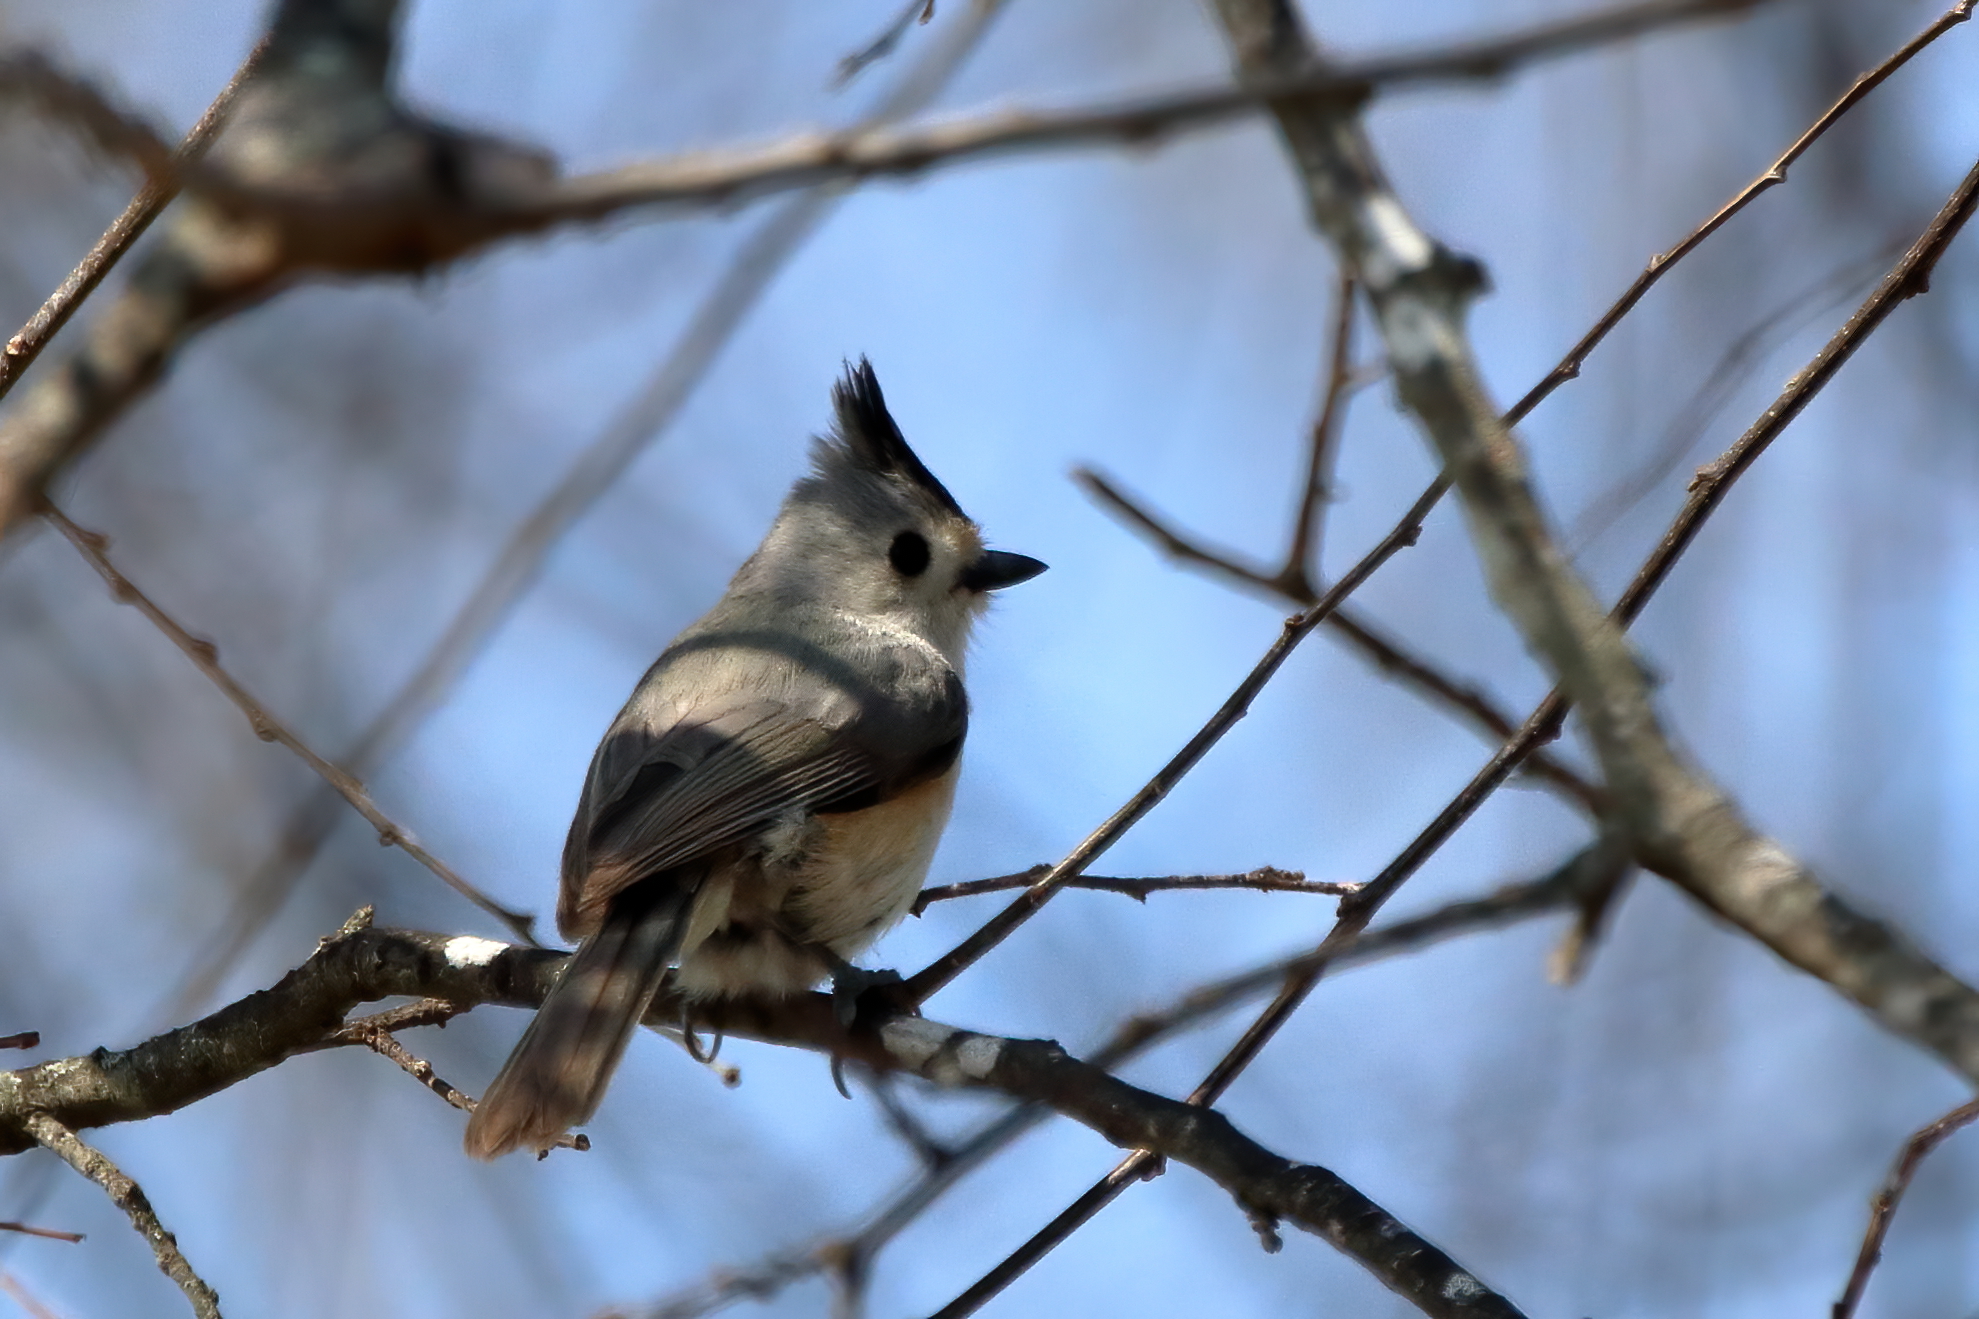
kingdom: Animalia
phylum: Chordata
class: Aves
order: Passeriformes
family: Paridae
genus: Baeolophus
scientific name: Baeolophus atricristatus
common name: Black-crested titmouse
